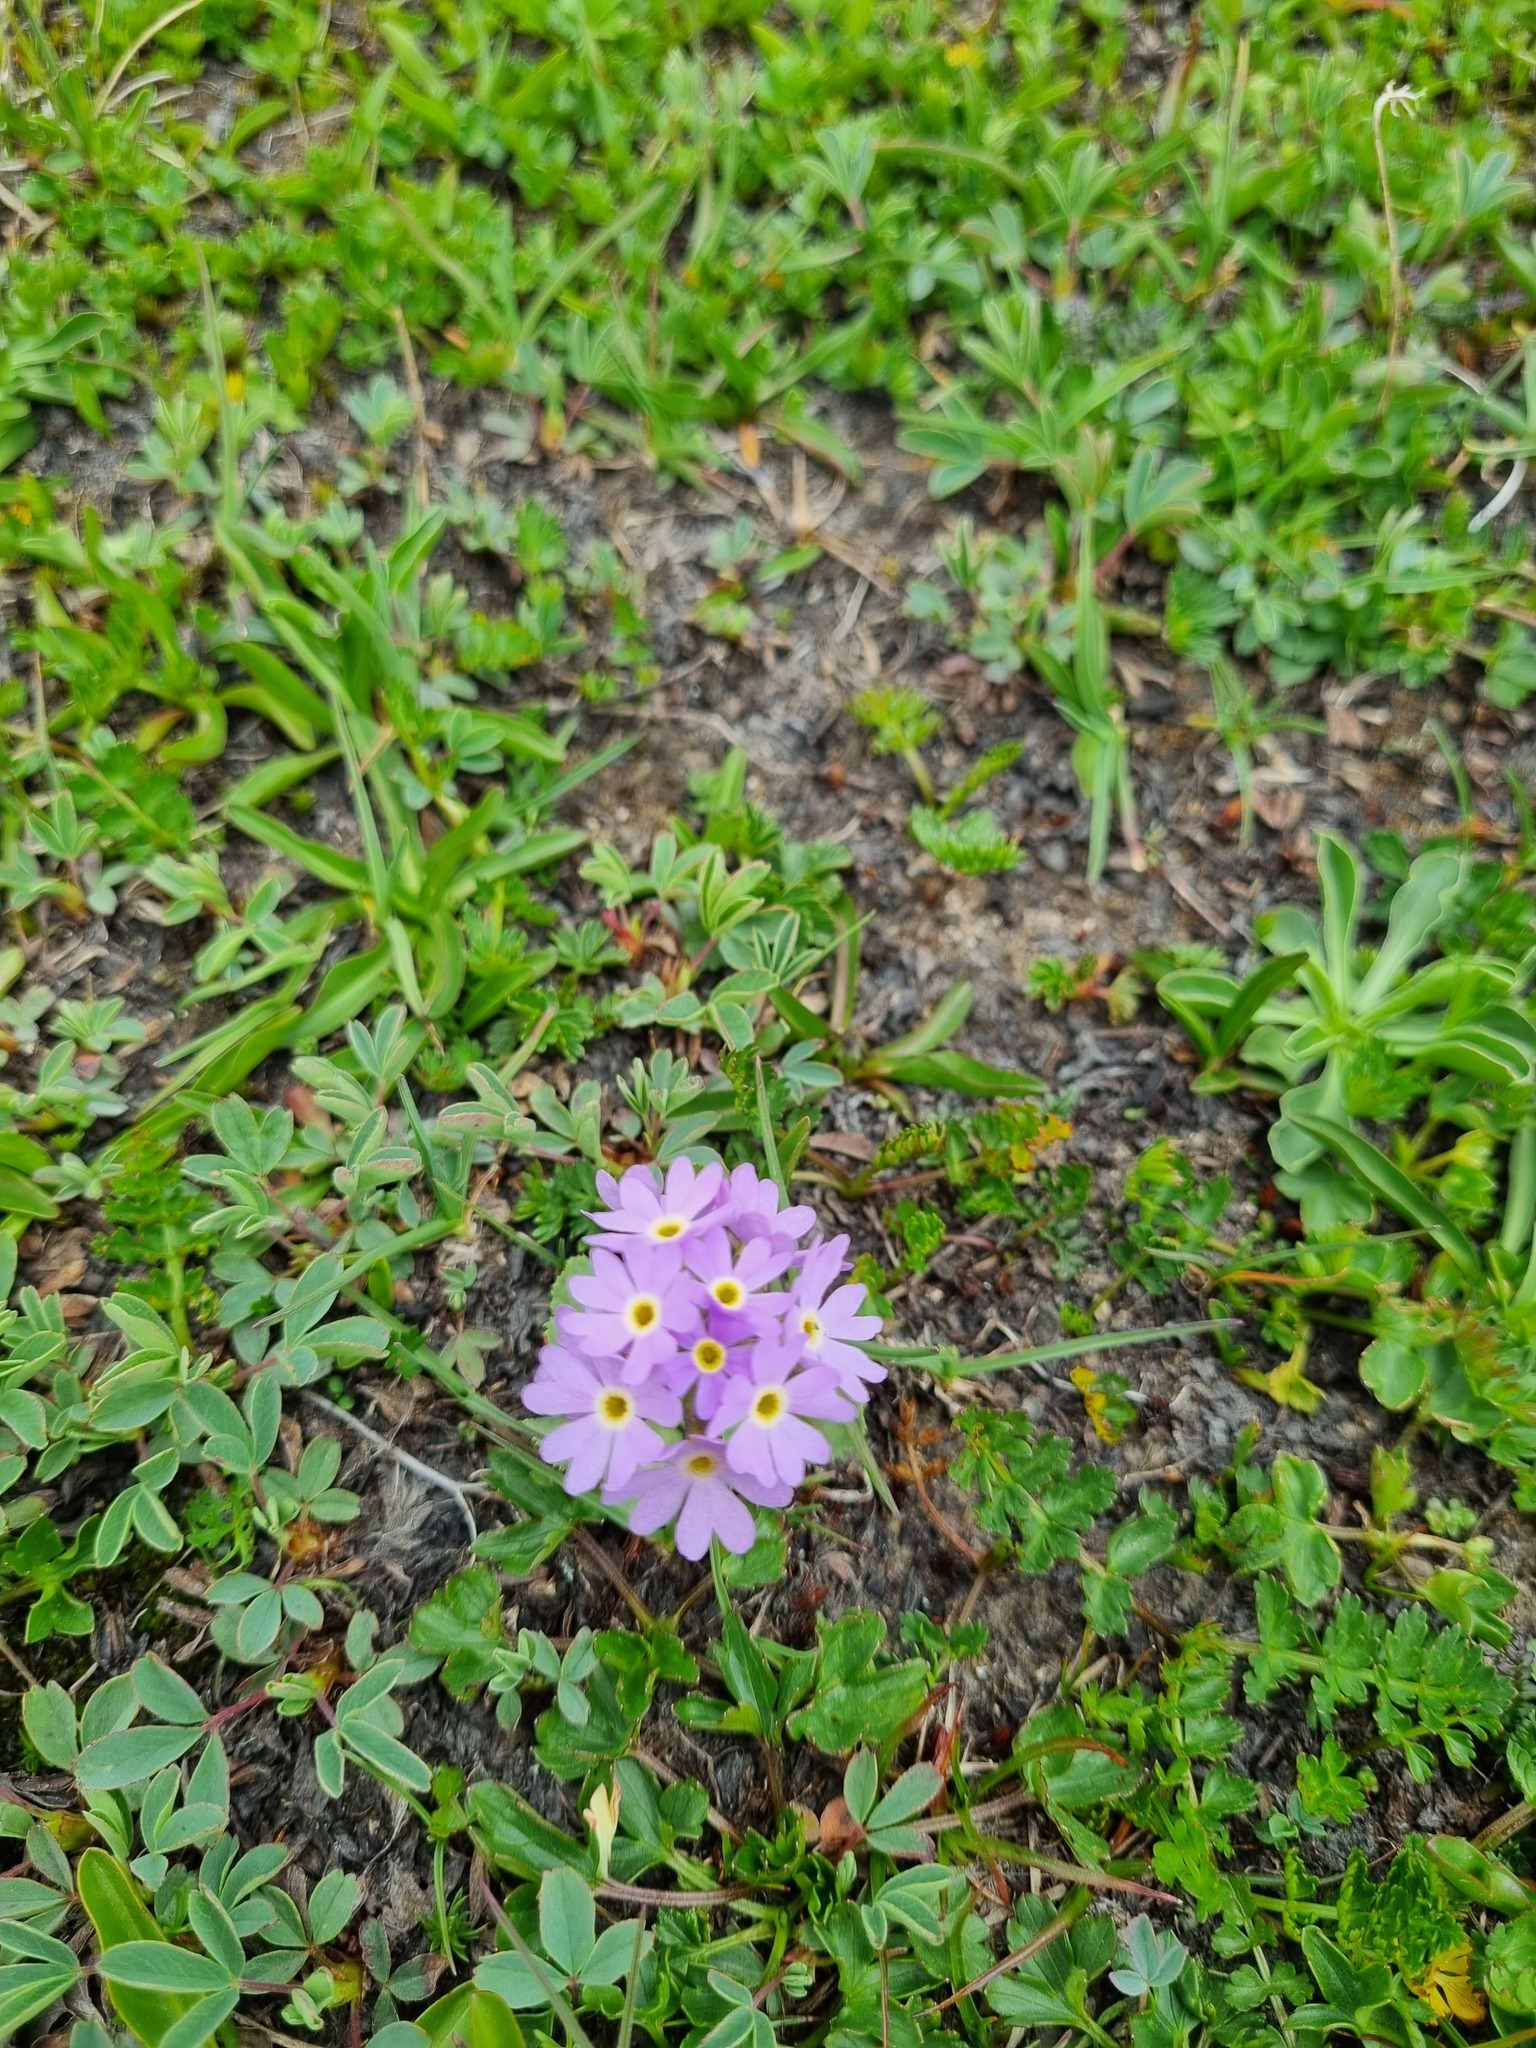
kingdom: Plantae
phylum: Tracheophyta
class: Magnoliopsida
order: Ericales
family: Primulaceae
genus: Primula
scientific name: Primula algida
